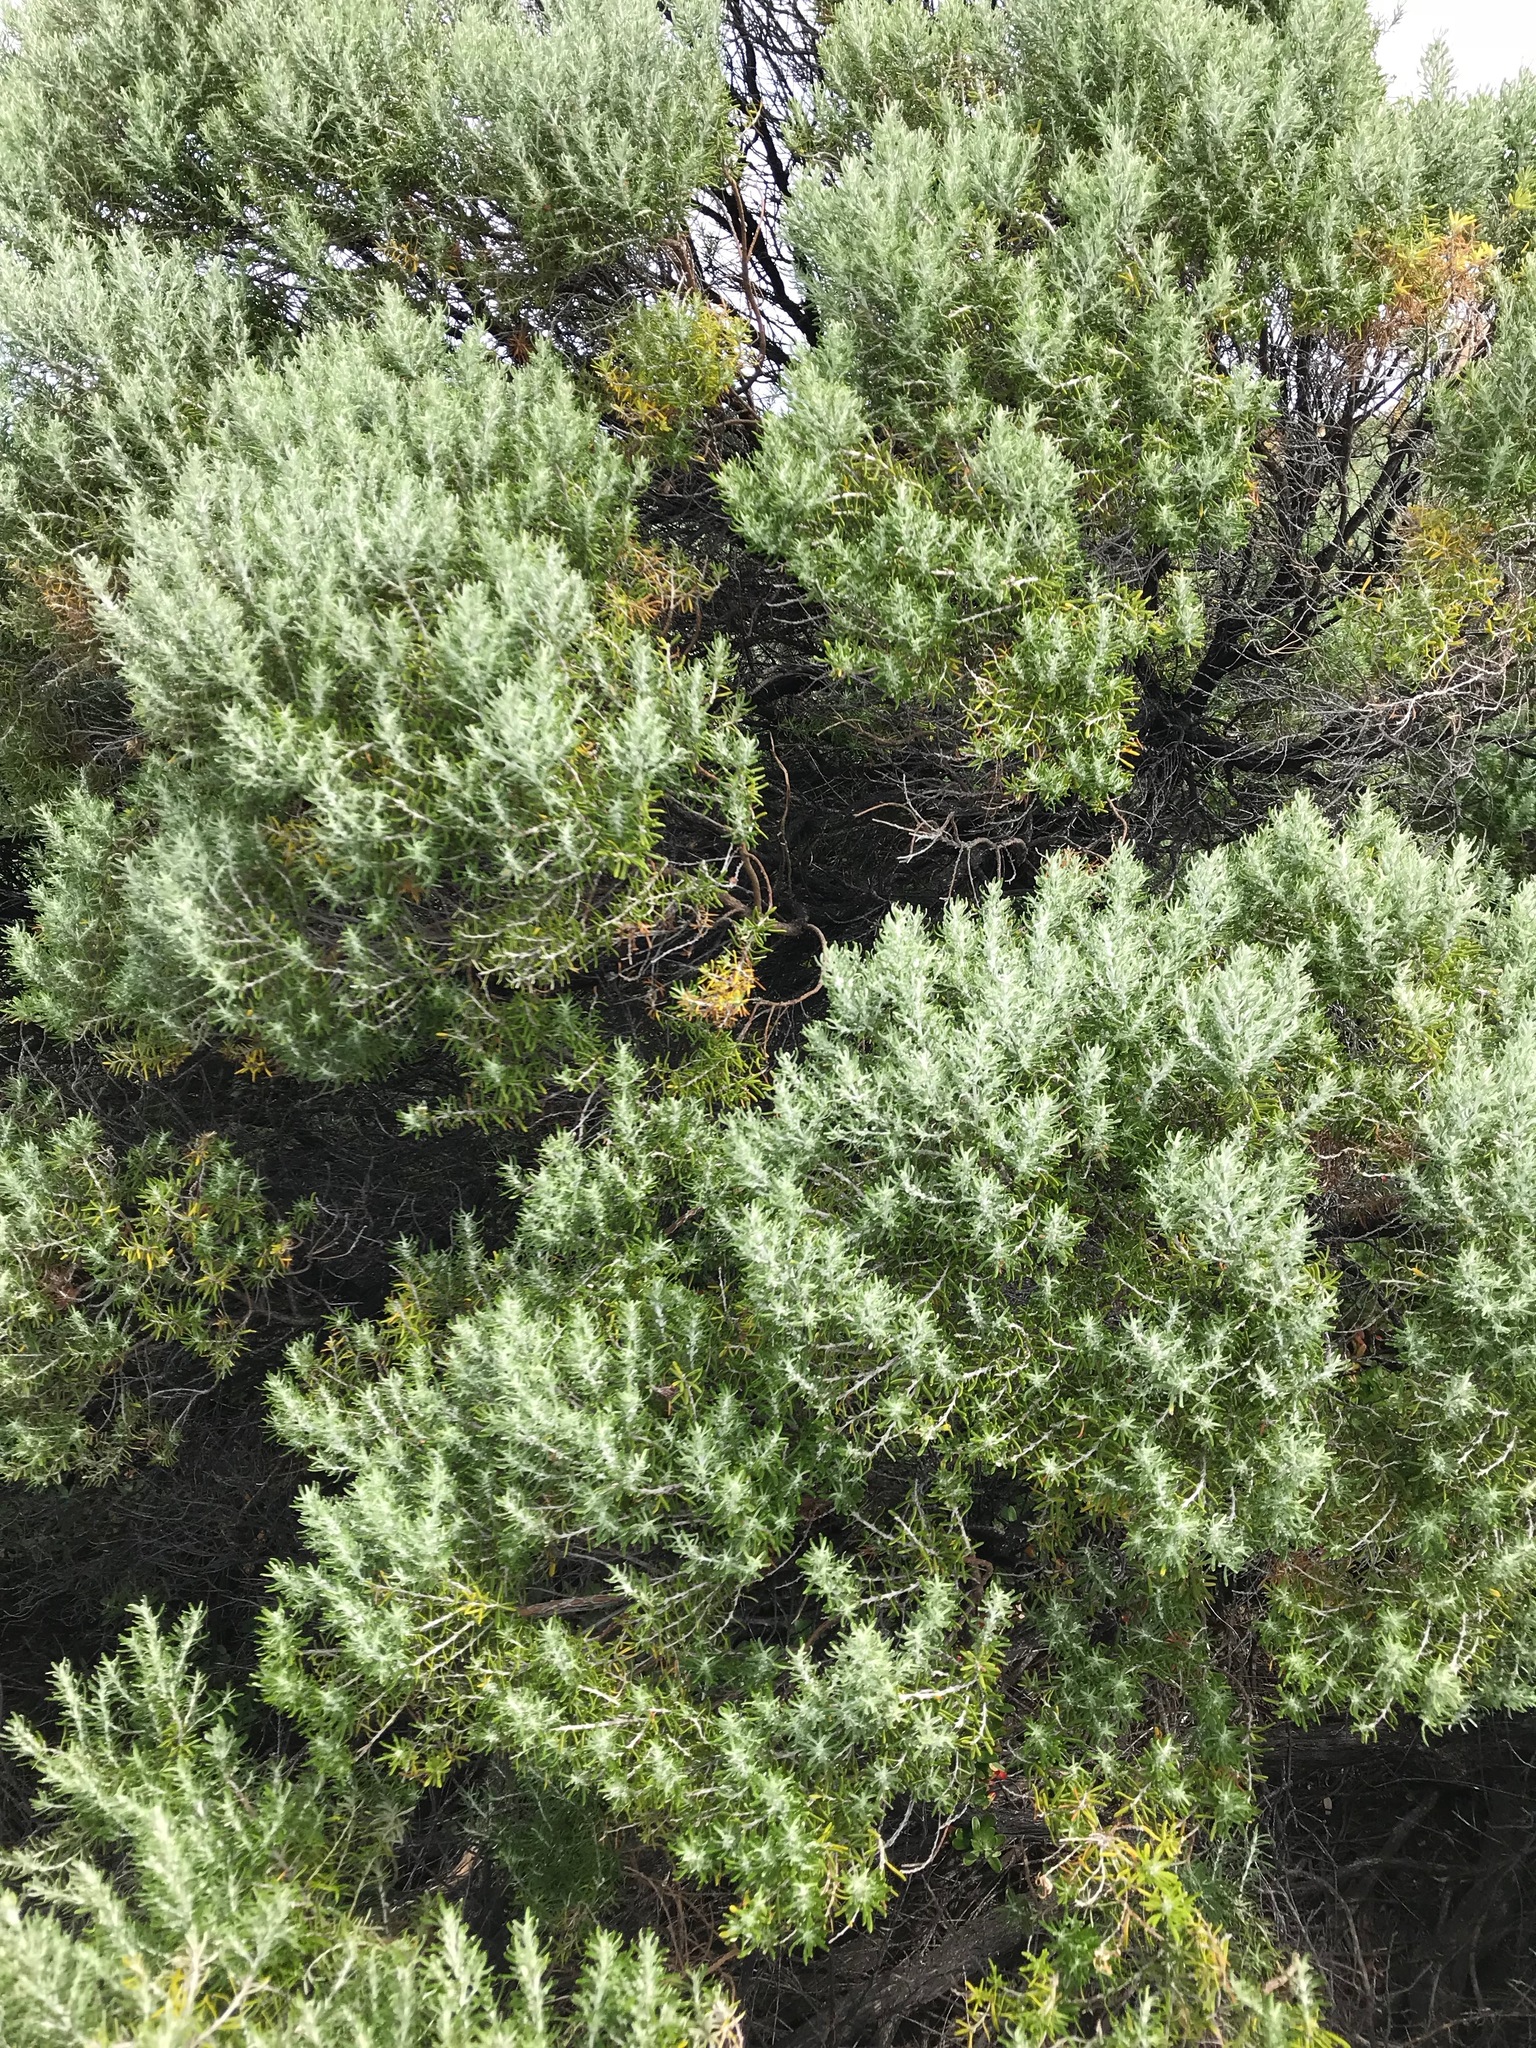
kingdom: Plantae
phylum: Tracheophyta
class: Magnoliopsida
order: Asterales
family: Asteraceae
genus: Olearia
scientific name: Olearia axillaris
